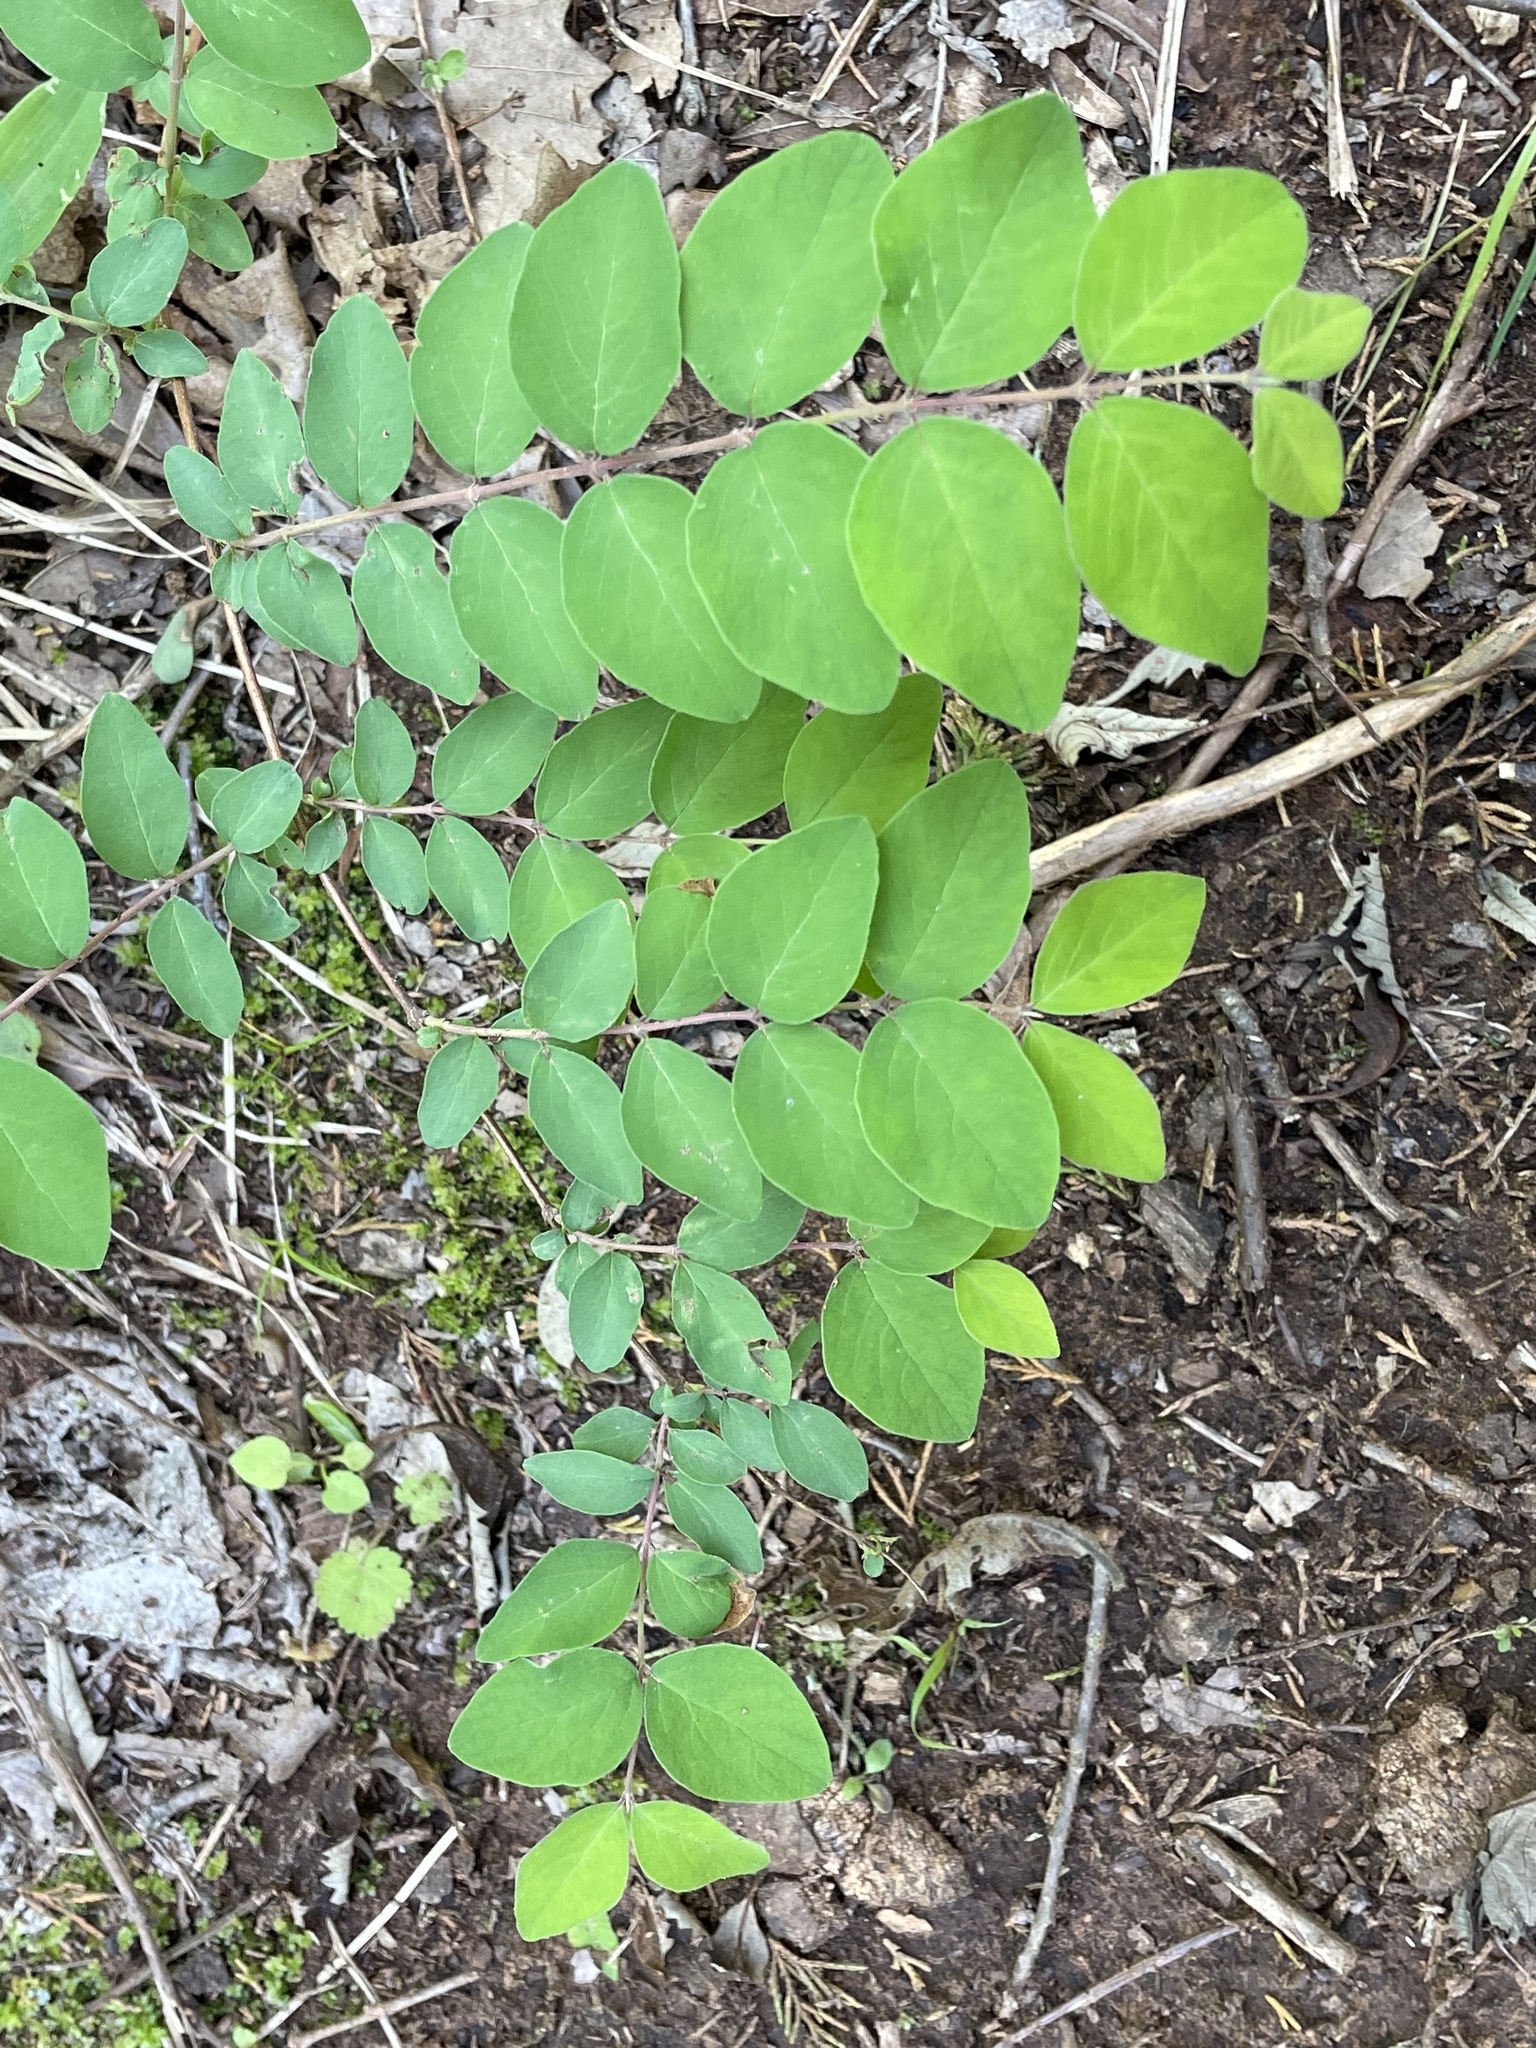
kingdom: Plantae
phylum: Tracheophyta
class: Magnoliopsida
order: Dipsacales
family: Caprifoliaceae
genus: Symphoricarpos
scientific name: Symphoricarpos orbiculatus
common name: Coralberry
